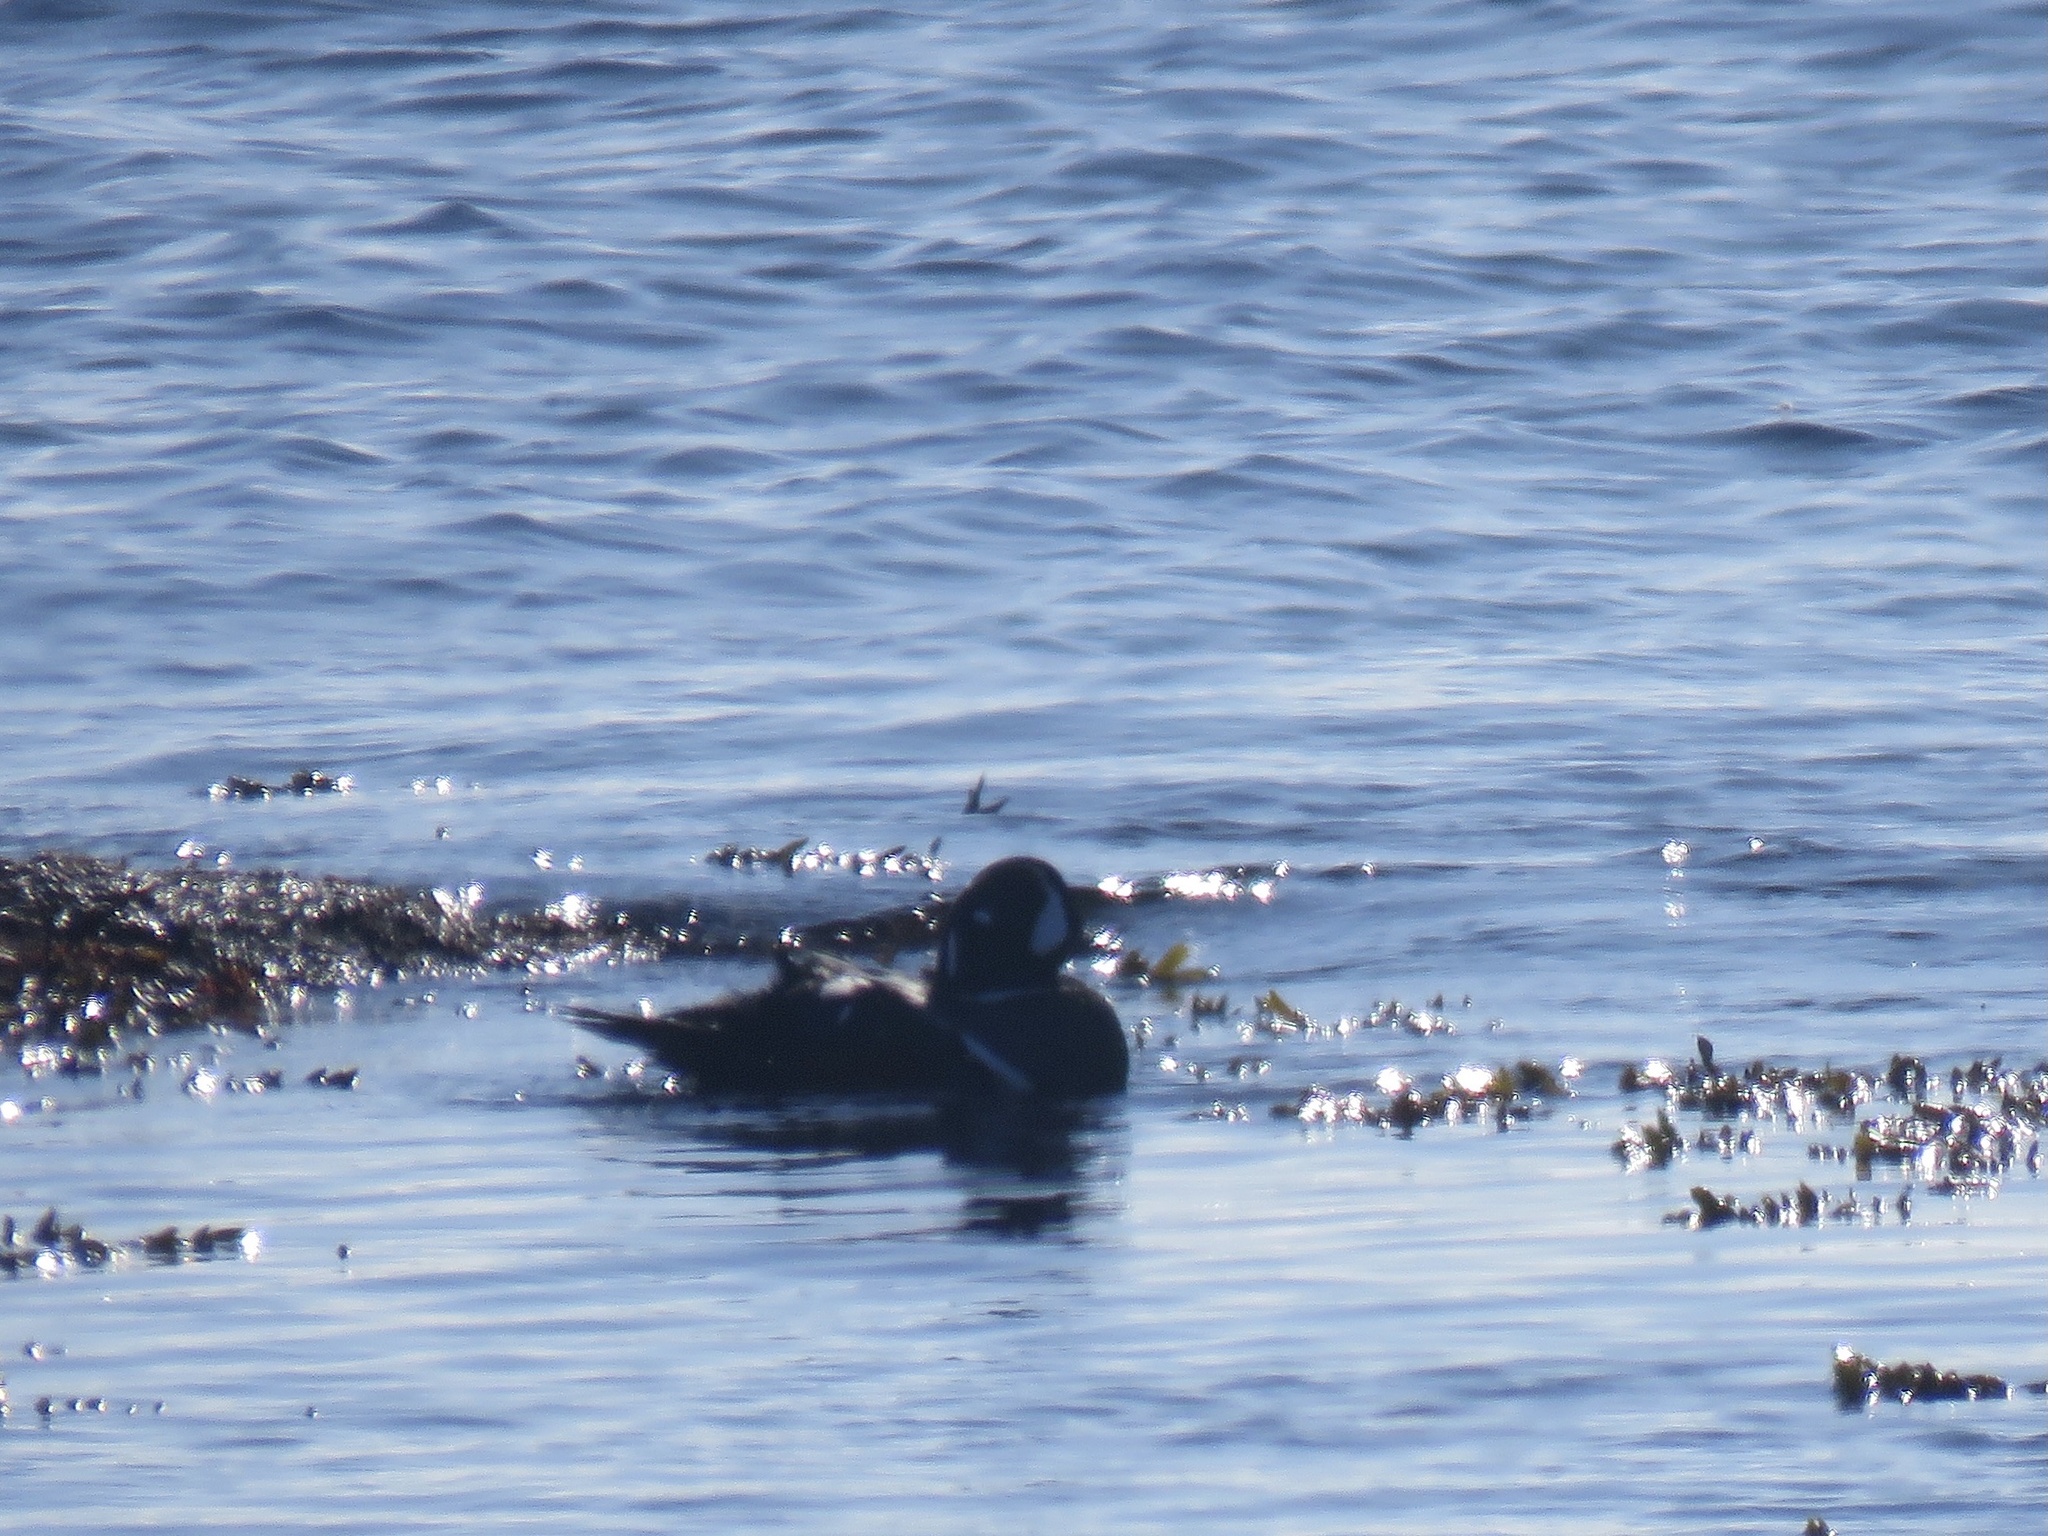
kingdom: Animalia
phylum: Chordata
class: Aves
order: Anseriformes
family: Anatidae
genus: Histrionicus
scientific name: Histrionicus histrionicus
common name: Harlequin duck
